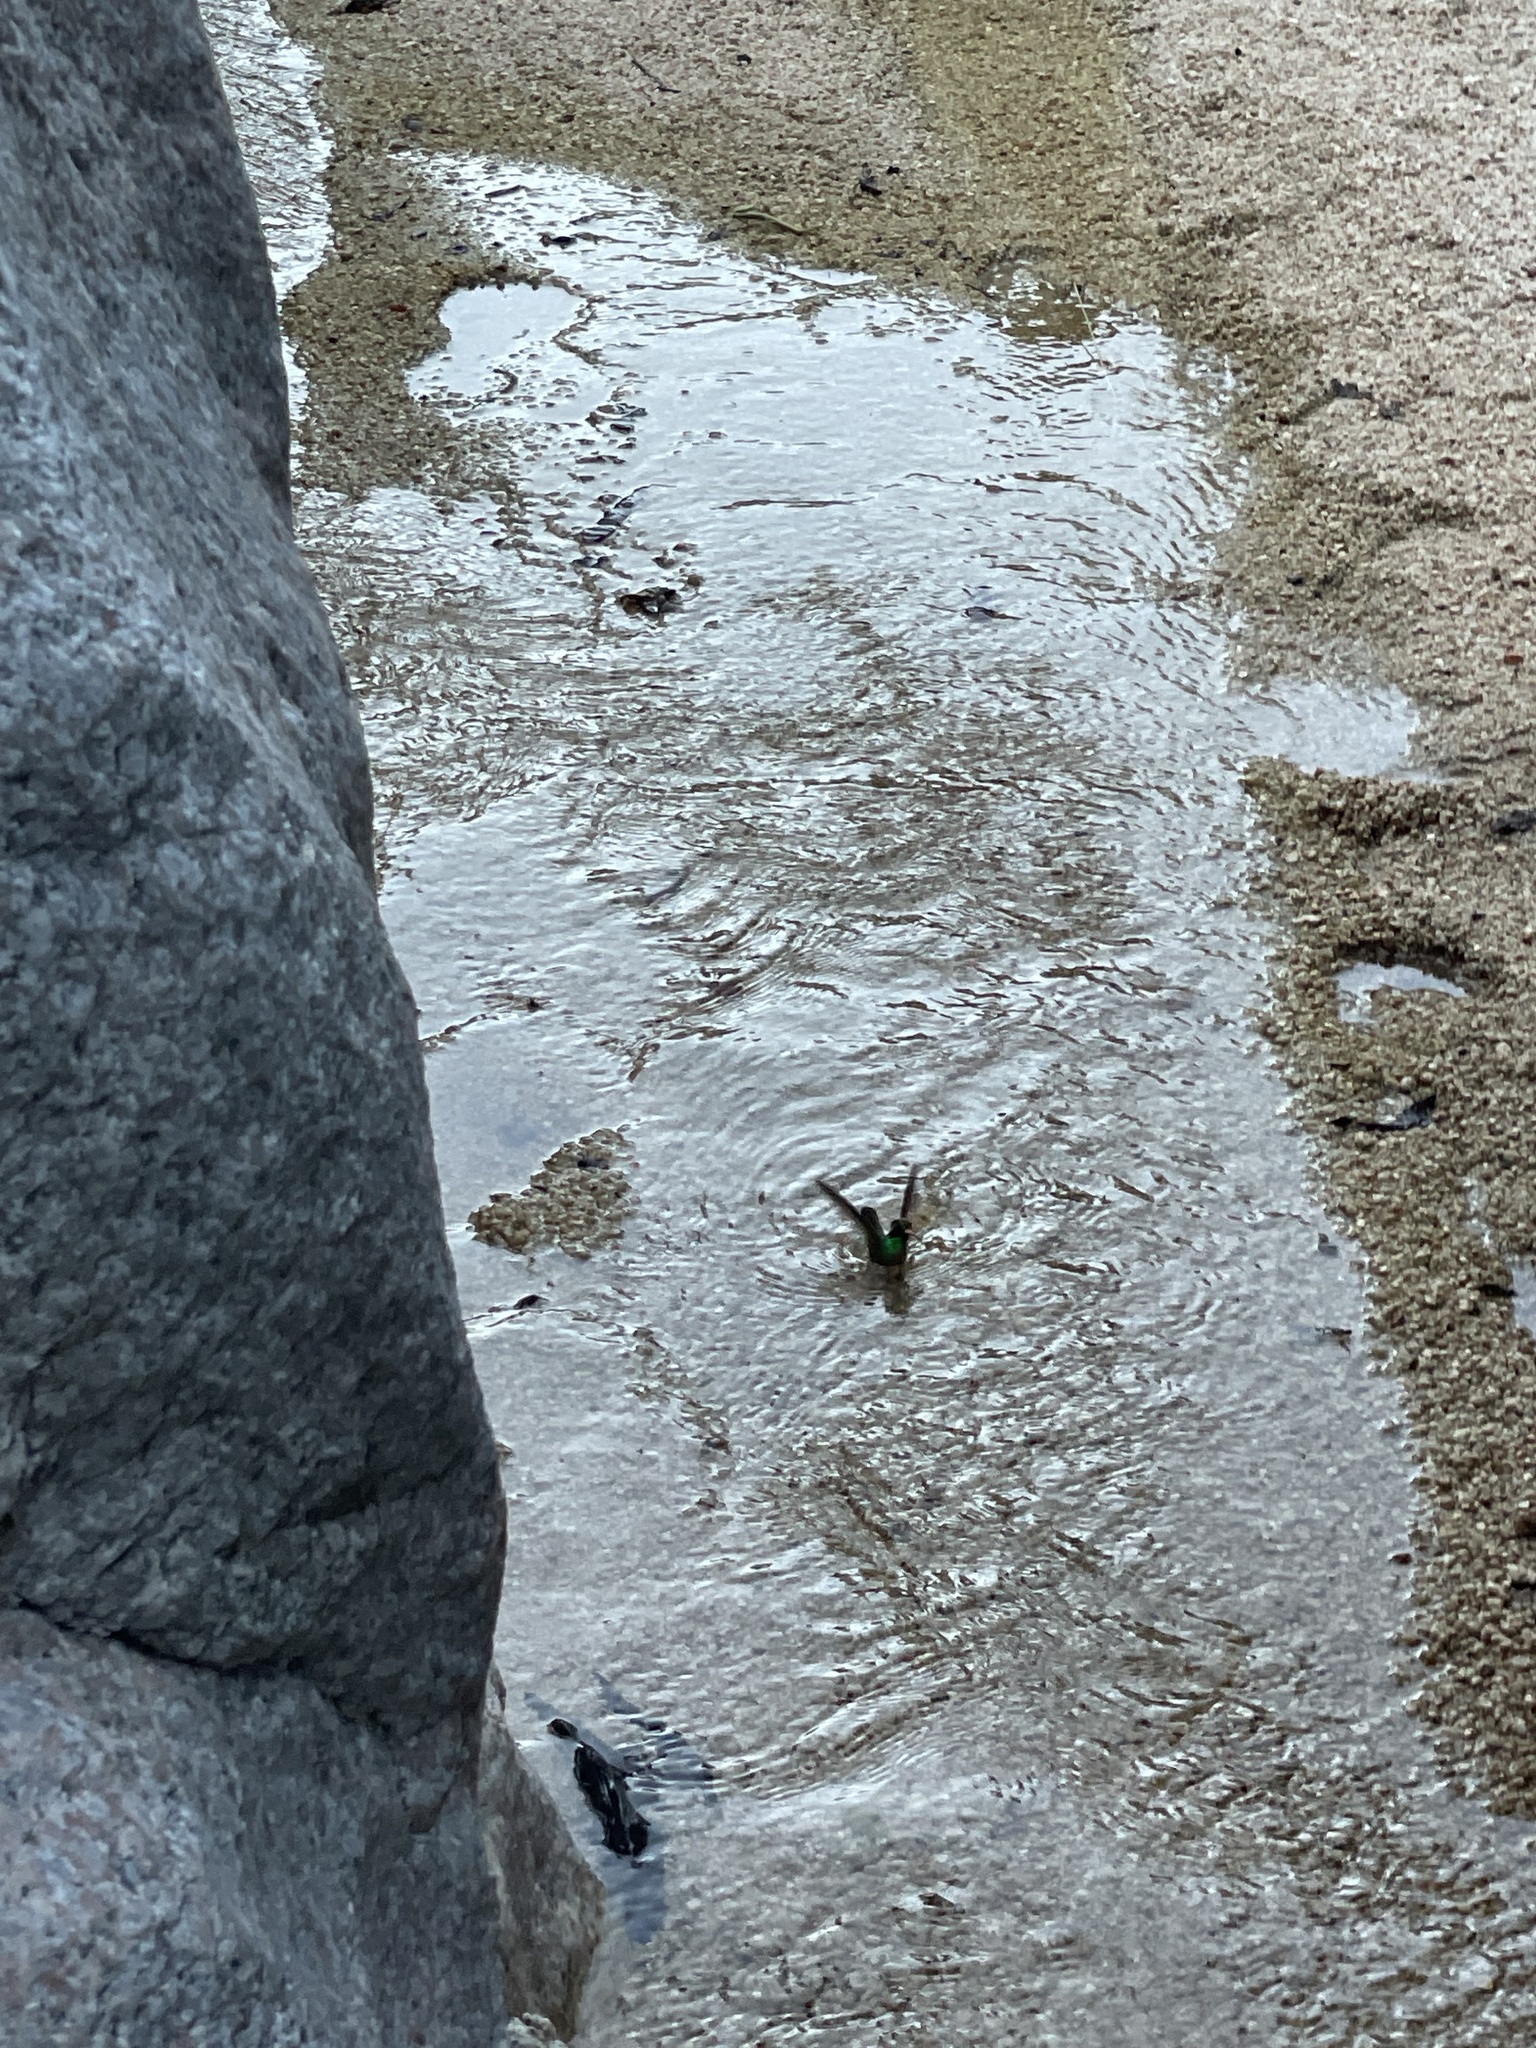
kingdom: Animalia
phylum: Chordata
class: Aves
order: Apodiformes
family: Trochilidae
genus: Basilinna
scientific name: Basilinna xantusii
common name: Xantus's hummingbird
